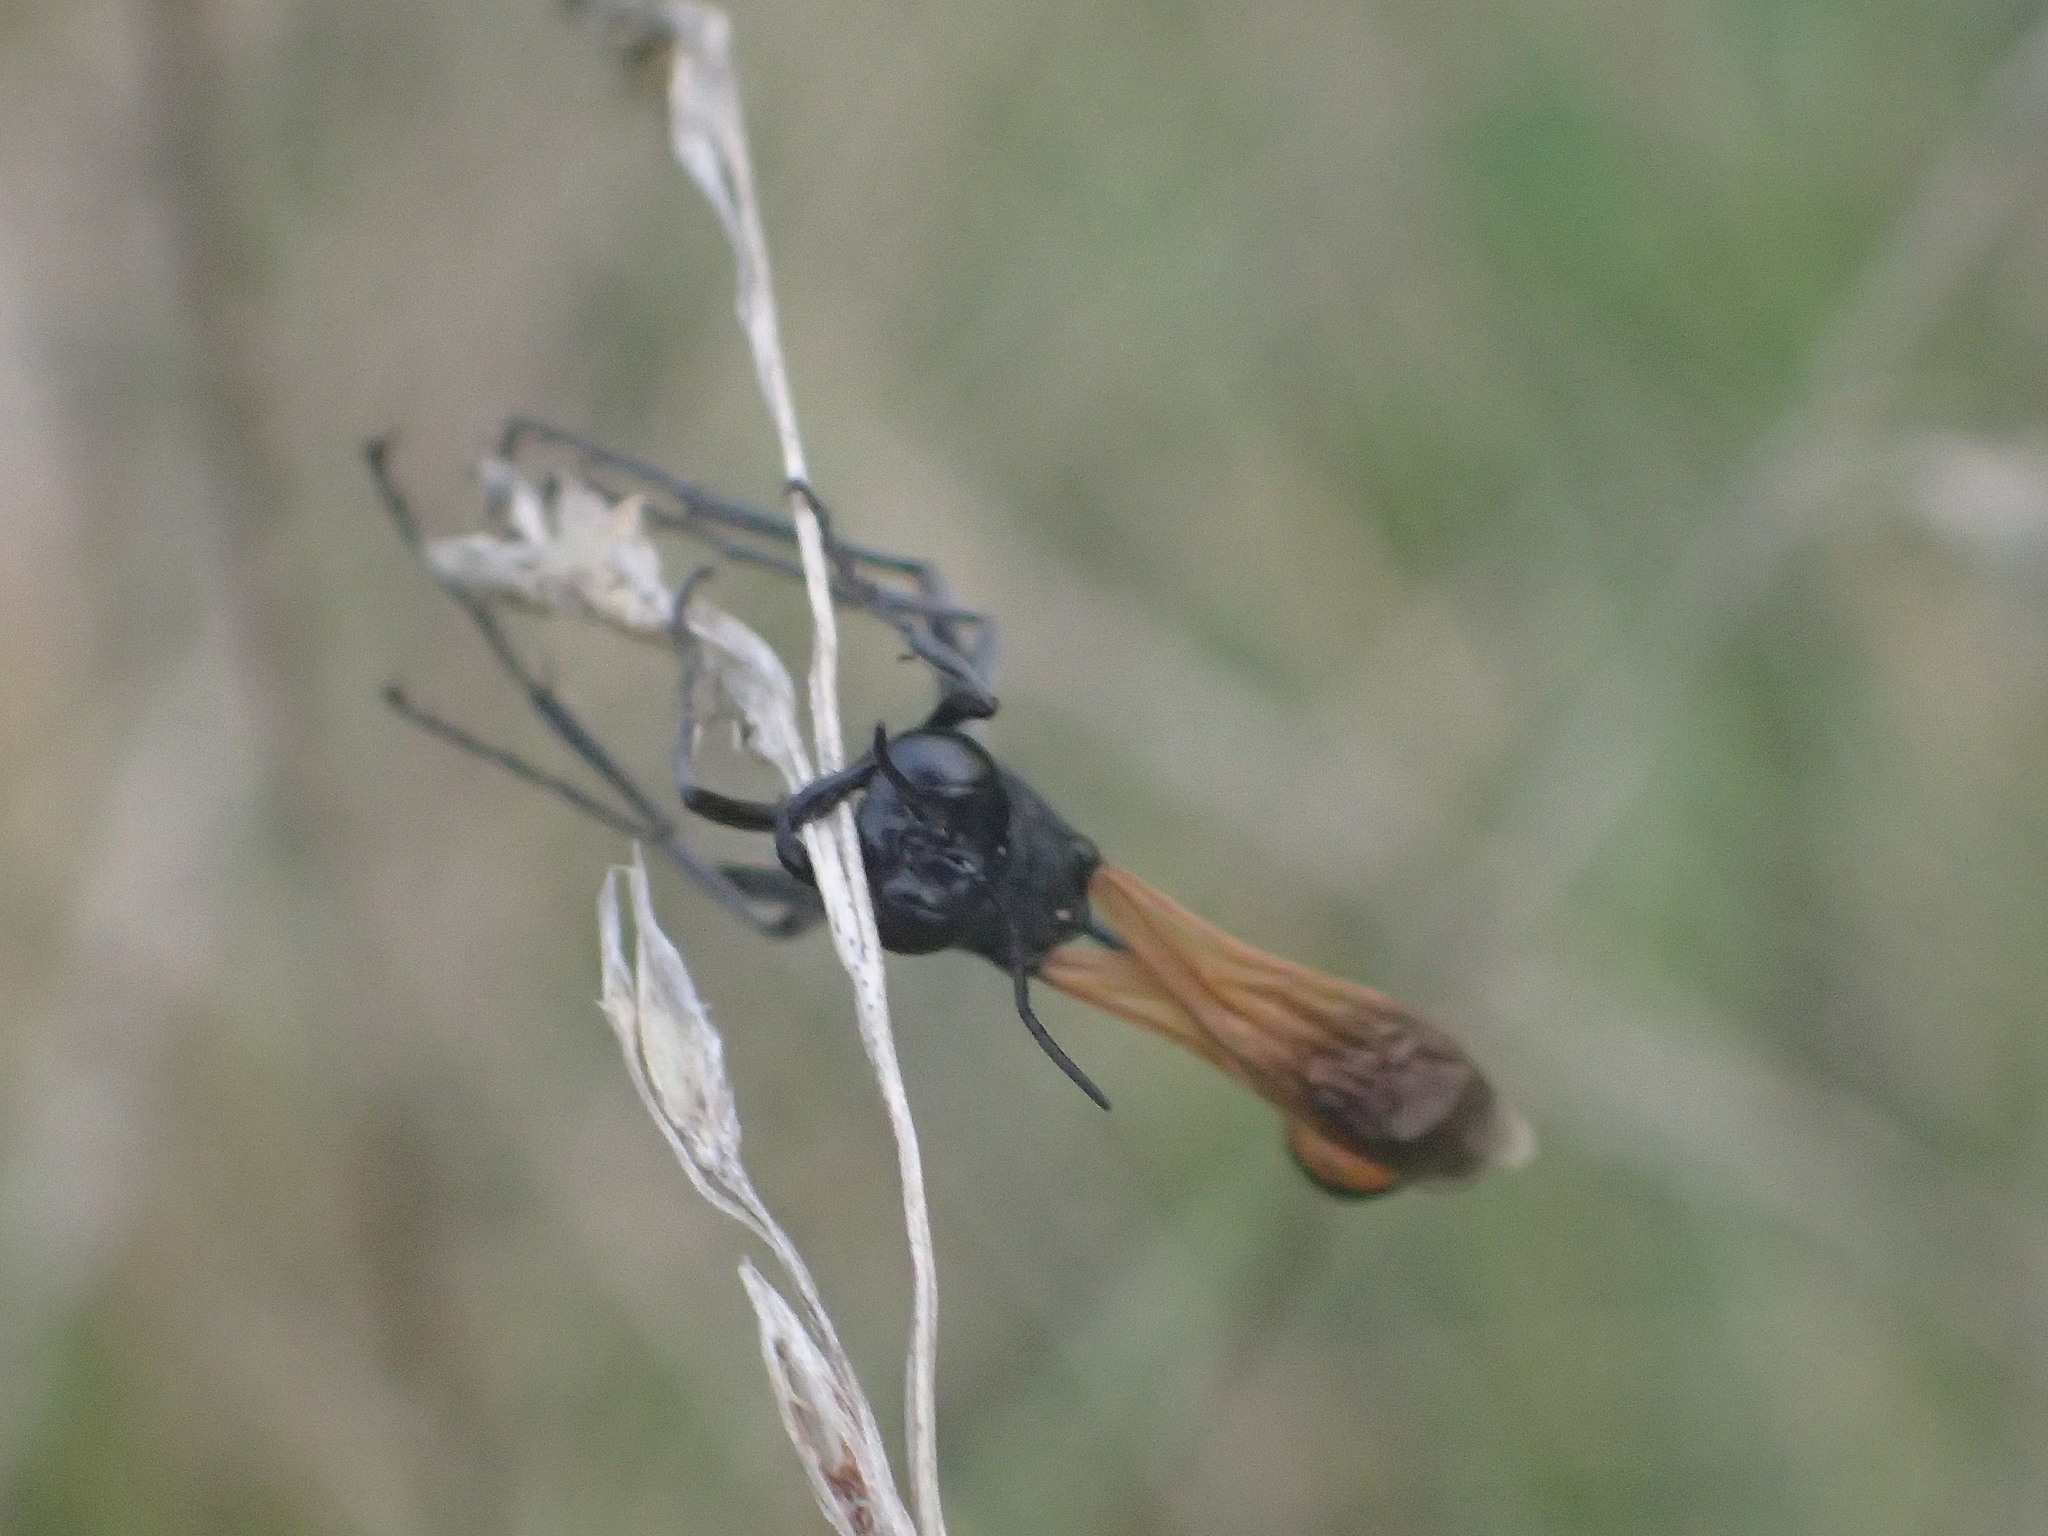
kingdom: Animalia
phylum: Arthropoda
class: Insecta
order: Hymenoptera
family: Sphecidae
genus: Ammophila
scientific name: Ammophila pictipennis
